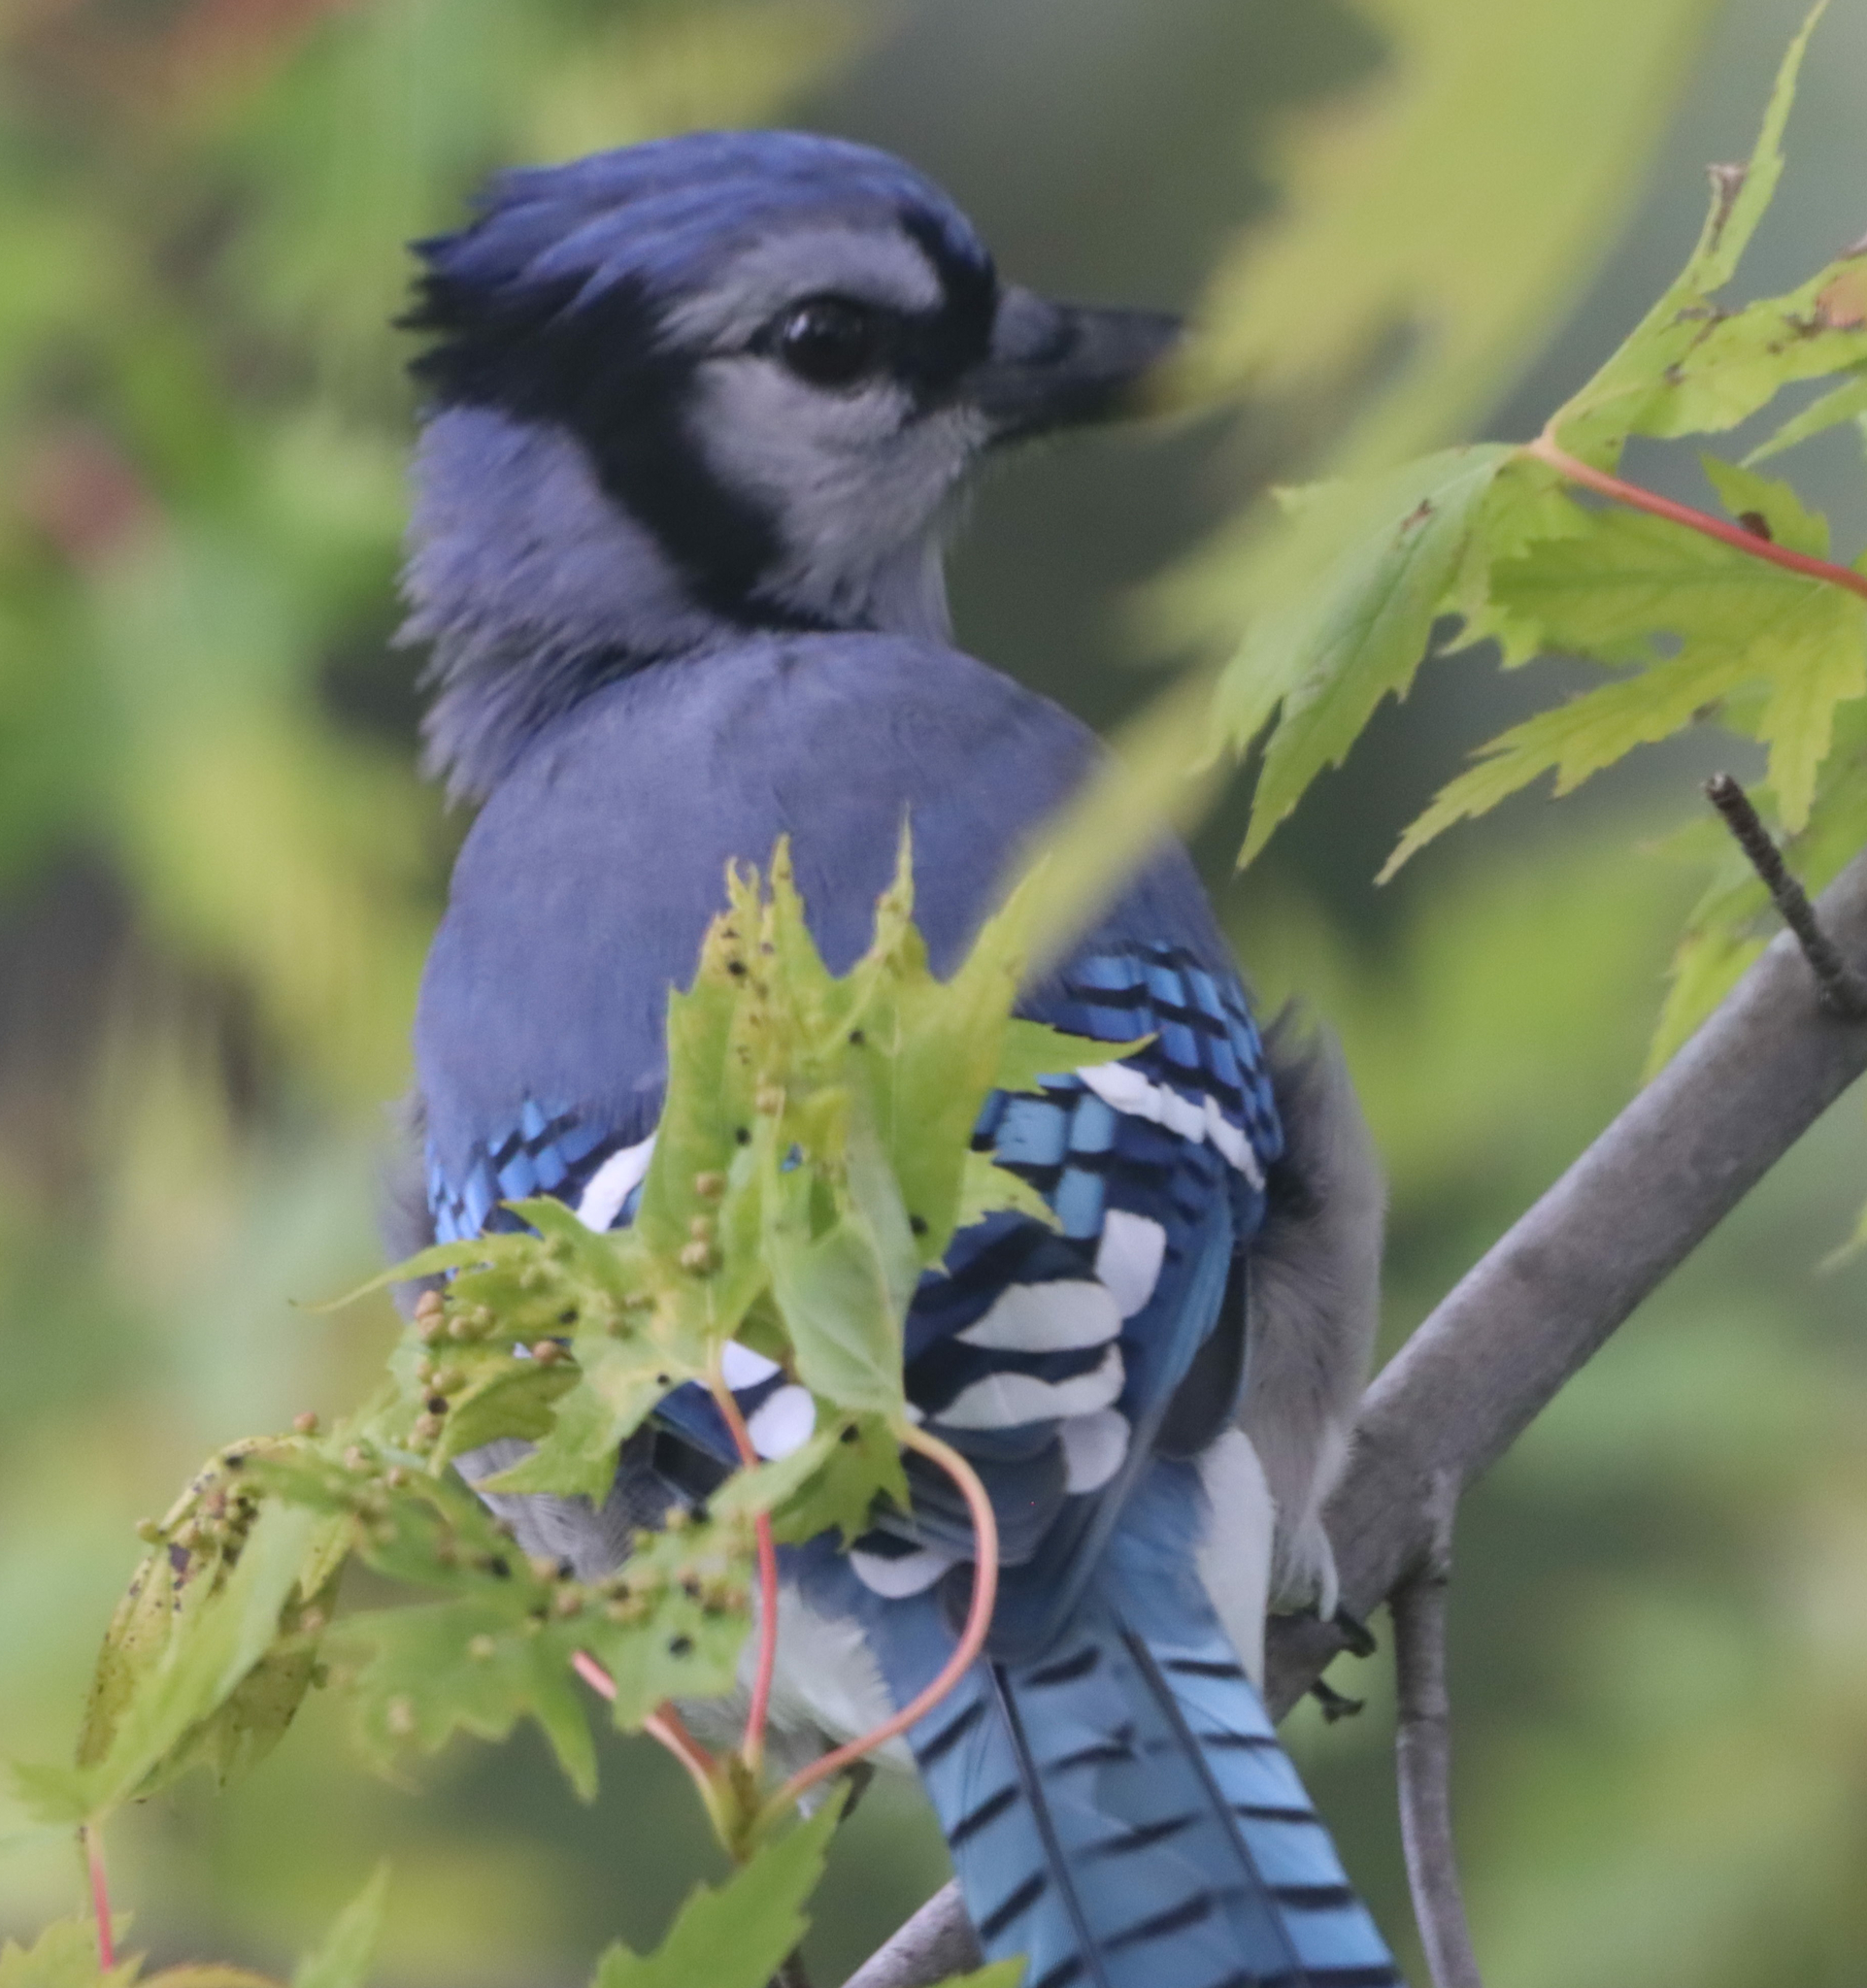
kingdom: Animalia
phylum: Chordata
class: Aves
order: Passeriformes
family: Corvidae
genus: Cyanocitta
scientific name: Cyanocitta cristata
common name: Blue jay
